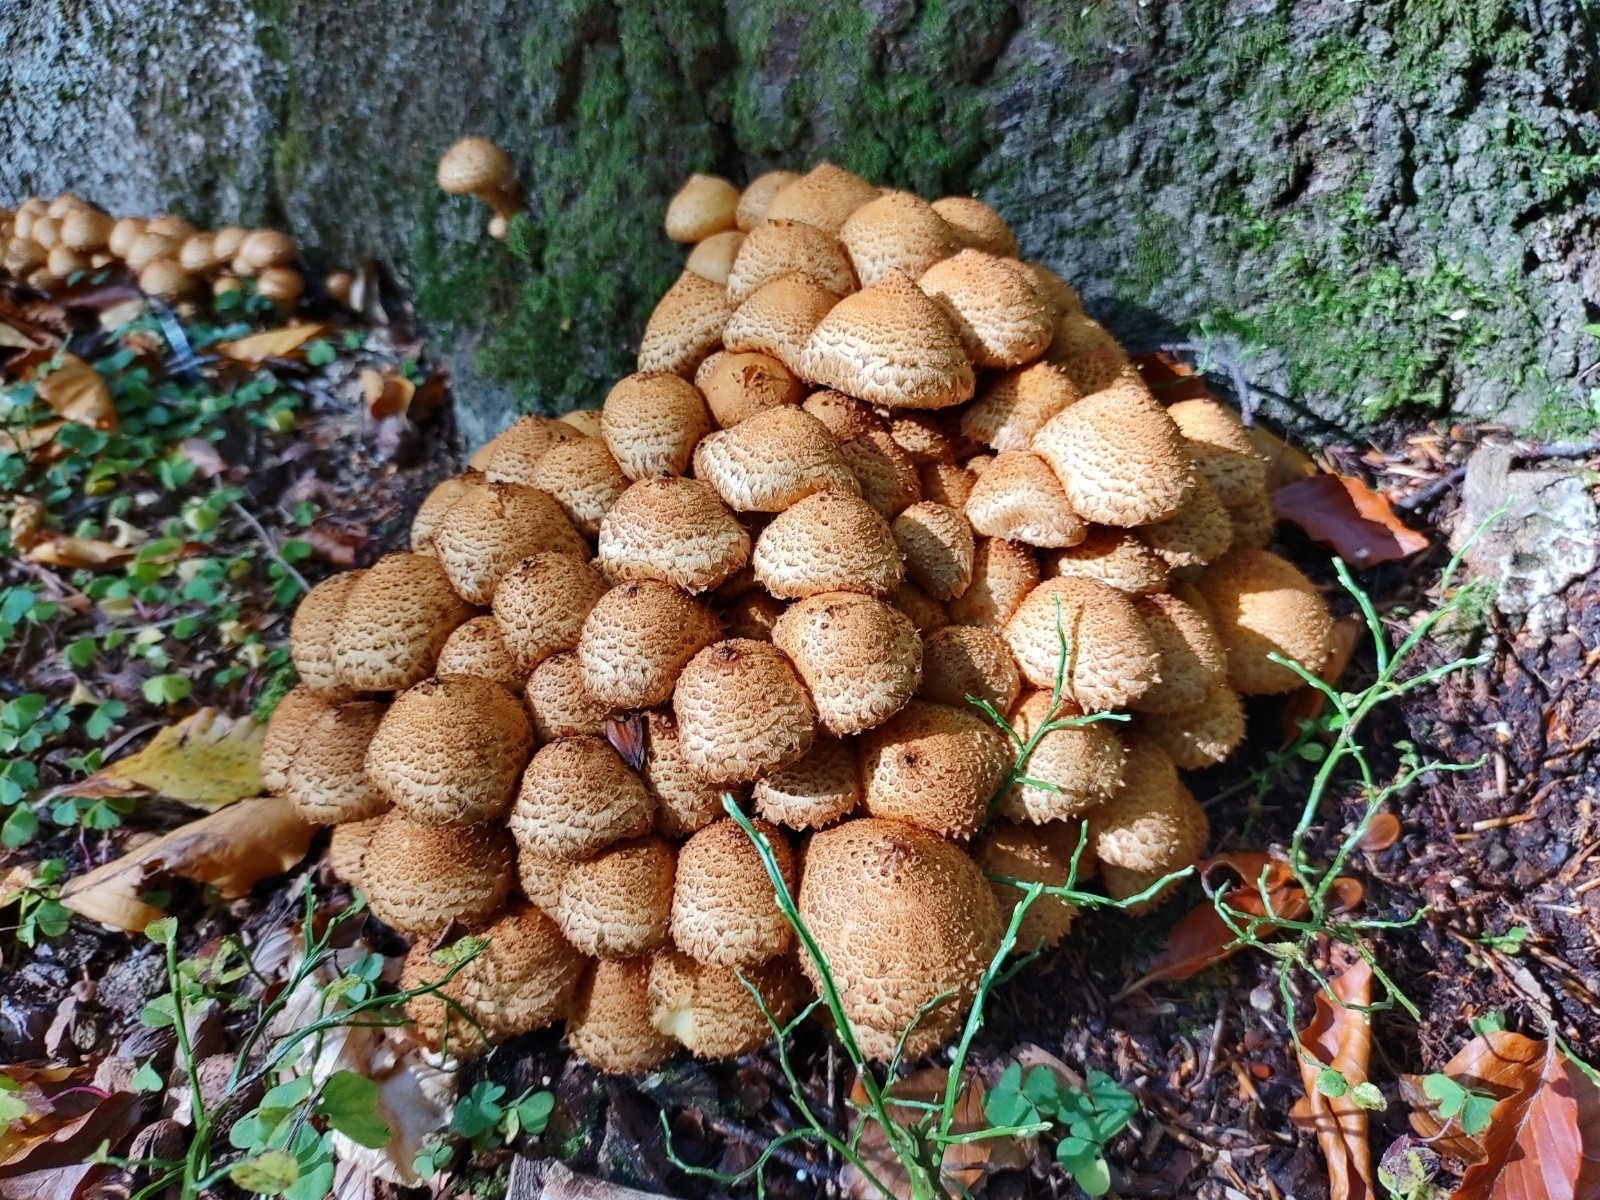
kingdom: Fungi
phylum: Basidiomycota
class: Agaricomycetes
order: Agaricales
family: Strophariaceae
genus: Pholiota
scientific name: Pholiota squarrosa
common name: Shaggy pholiota
